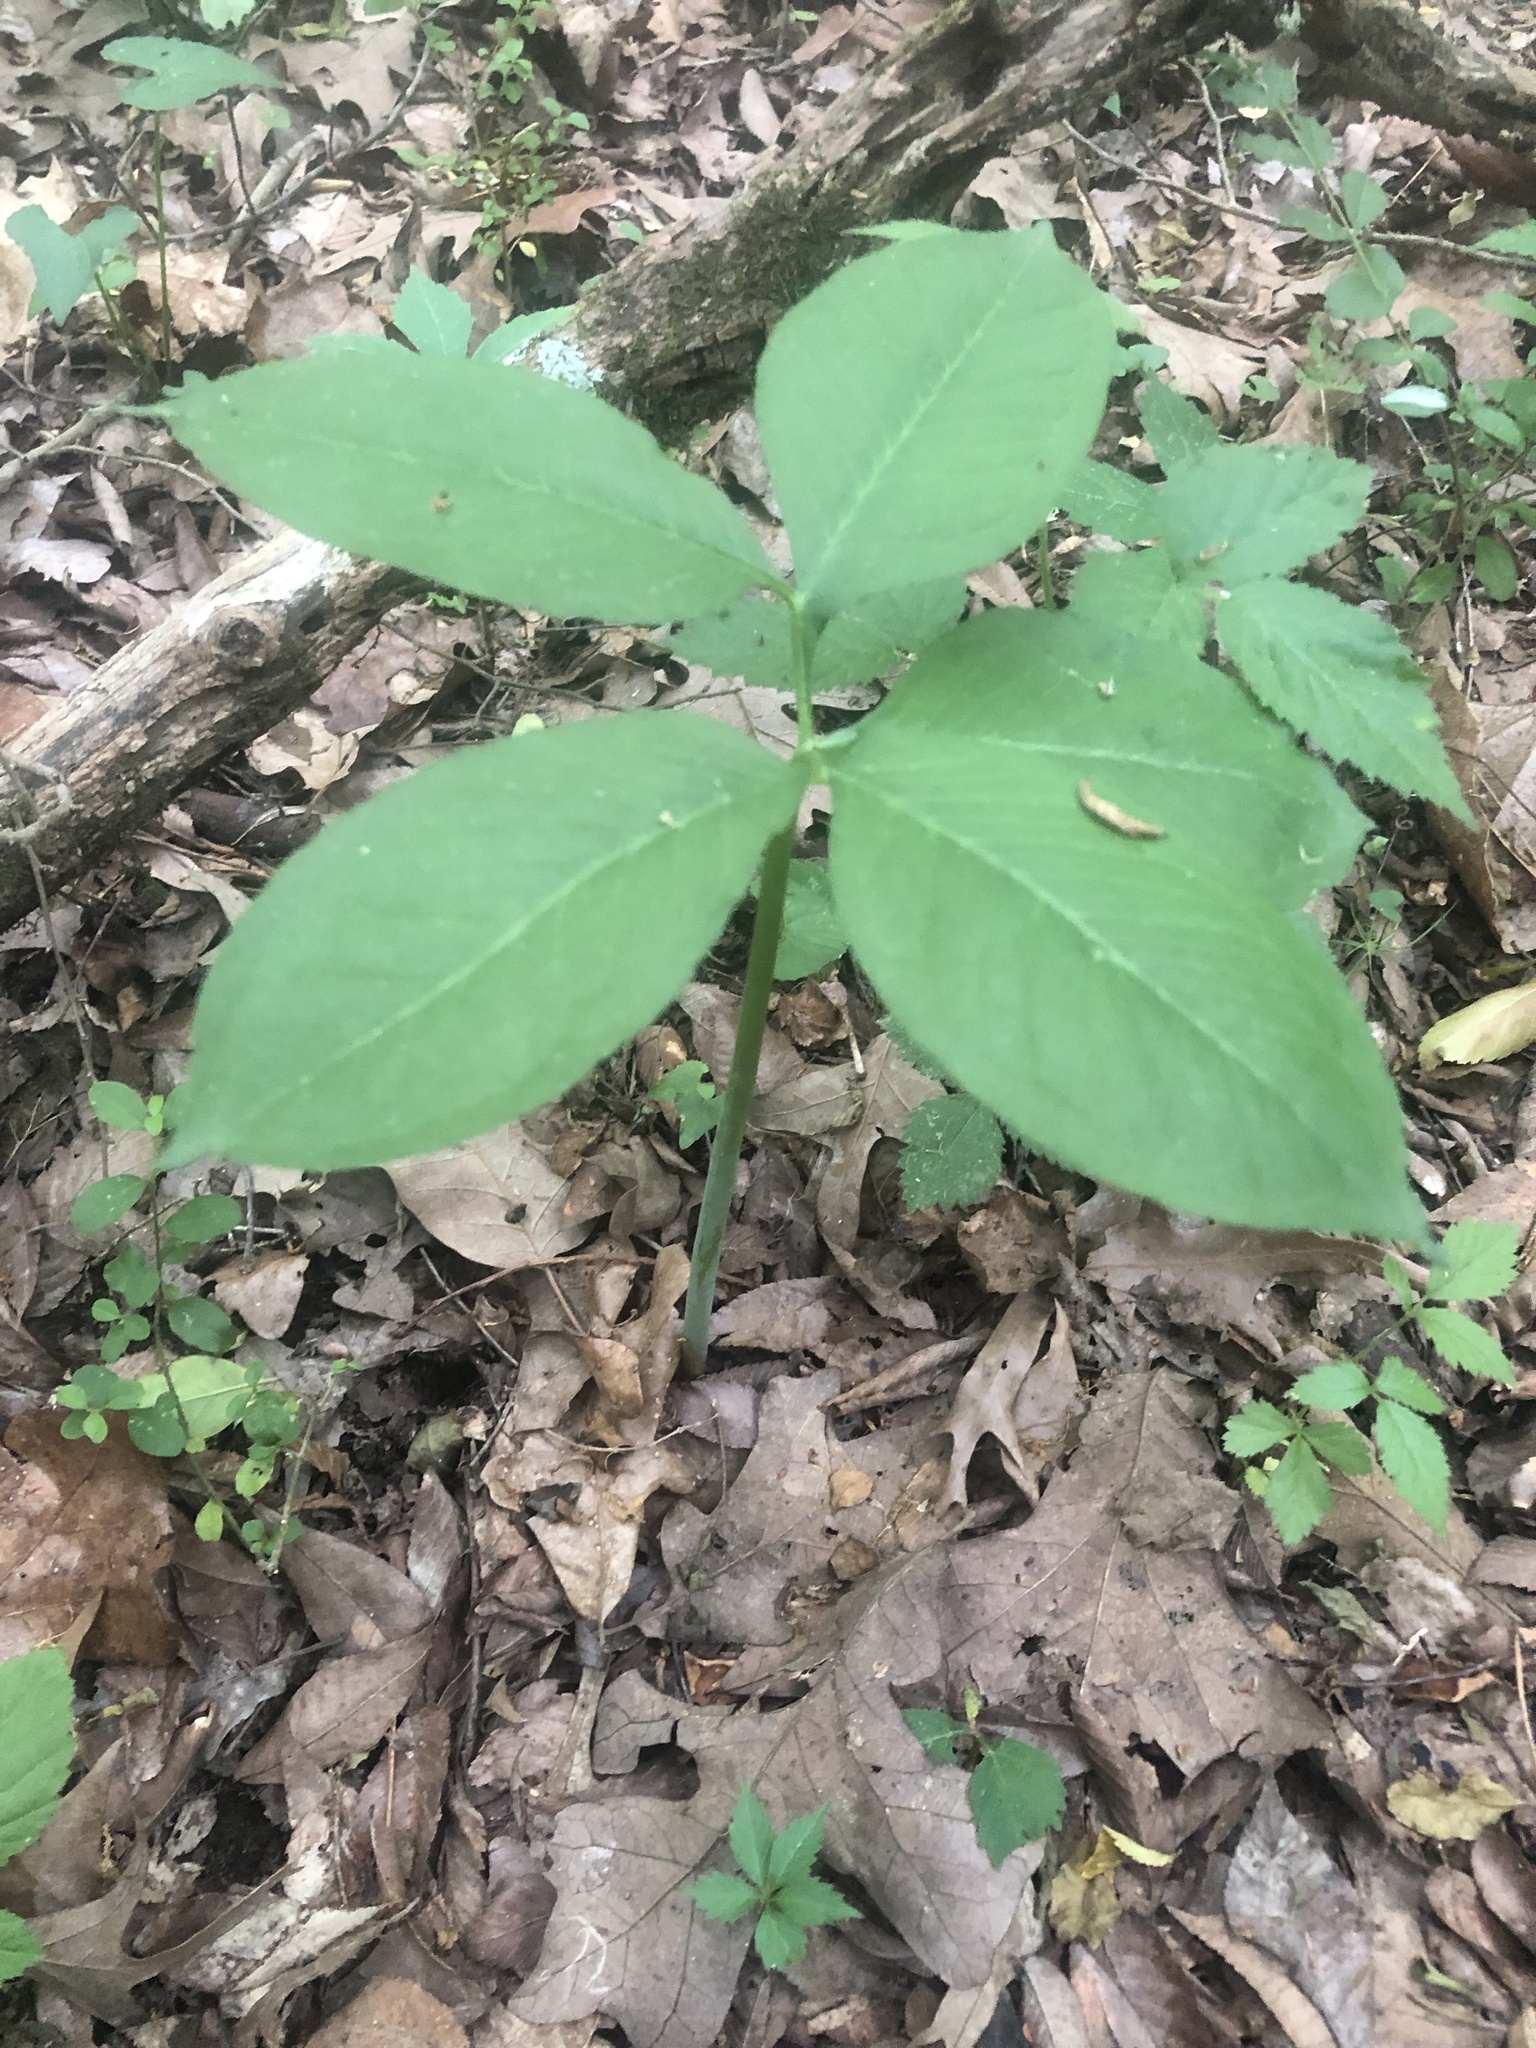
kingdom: Plantae
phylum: Tracheophyta
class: Liliopsida
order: Alismatales
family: Araceae
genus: Arisaema
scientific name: Arisaema dracontium
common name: Dragon-arum
